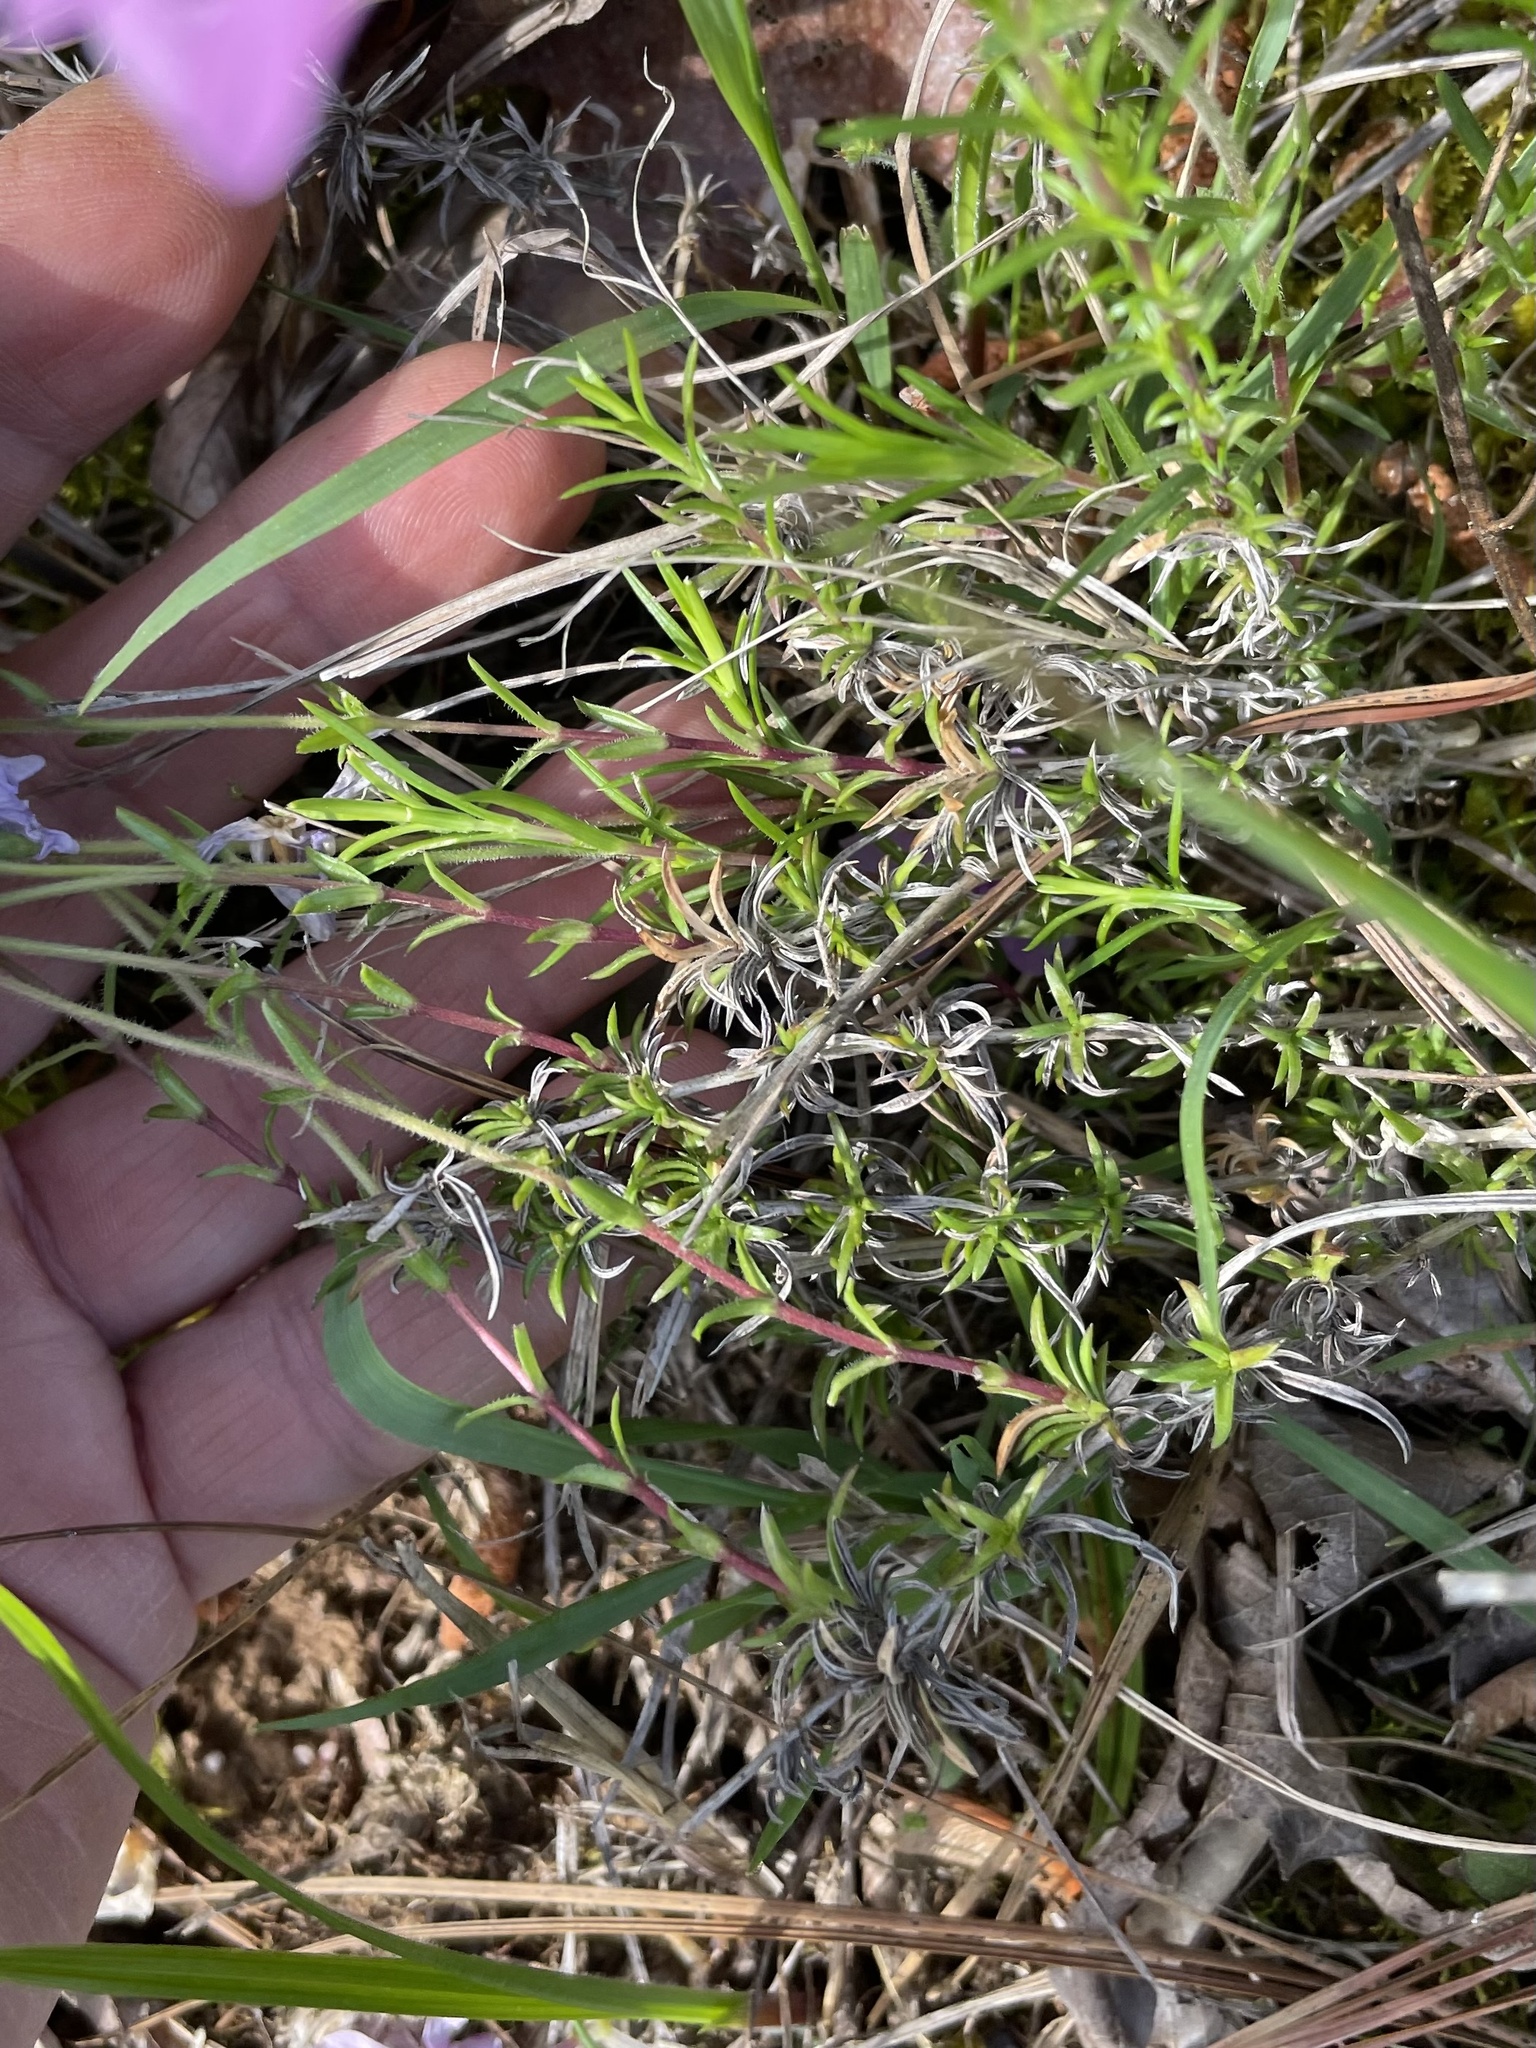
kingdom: Plantae
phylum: Tracheophyta
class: Magnoliopsida
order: Ericales
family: Polemoniaceae
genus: Phlox
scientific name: Phlox nivalis
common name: Trailing phlox
